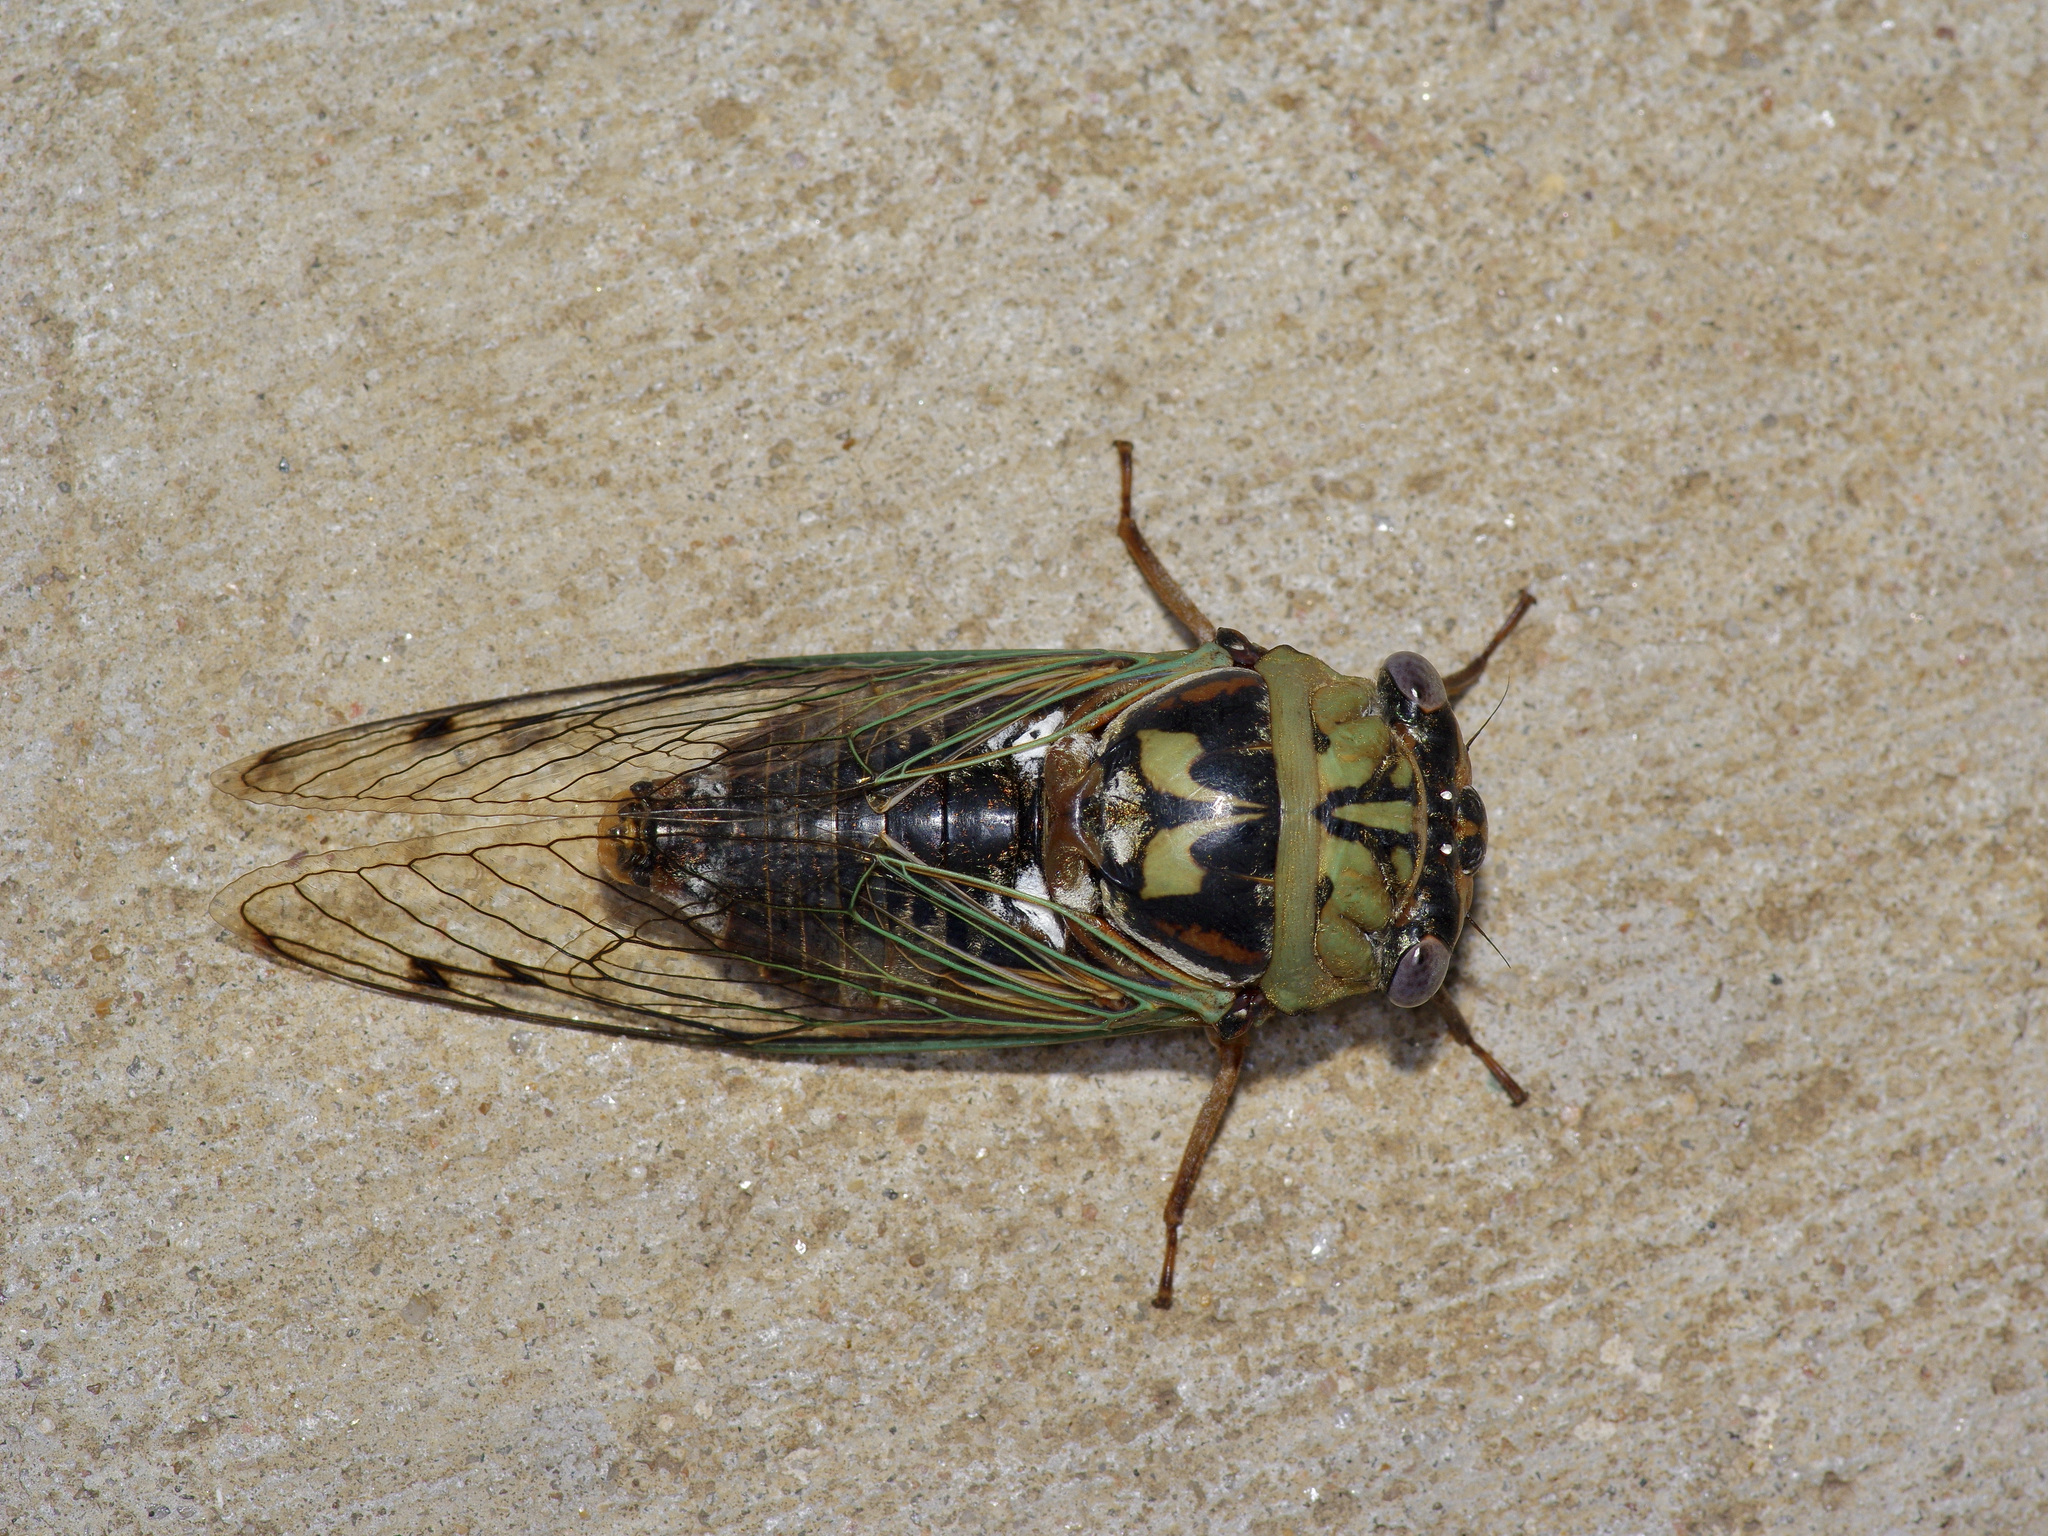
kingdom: Animalia
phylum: Arthropoda
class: Insecta
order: Hemiptera
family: Cicadidae
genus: Megatibicen
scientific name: Megatibicen resh
